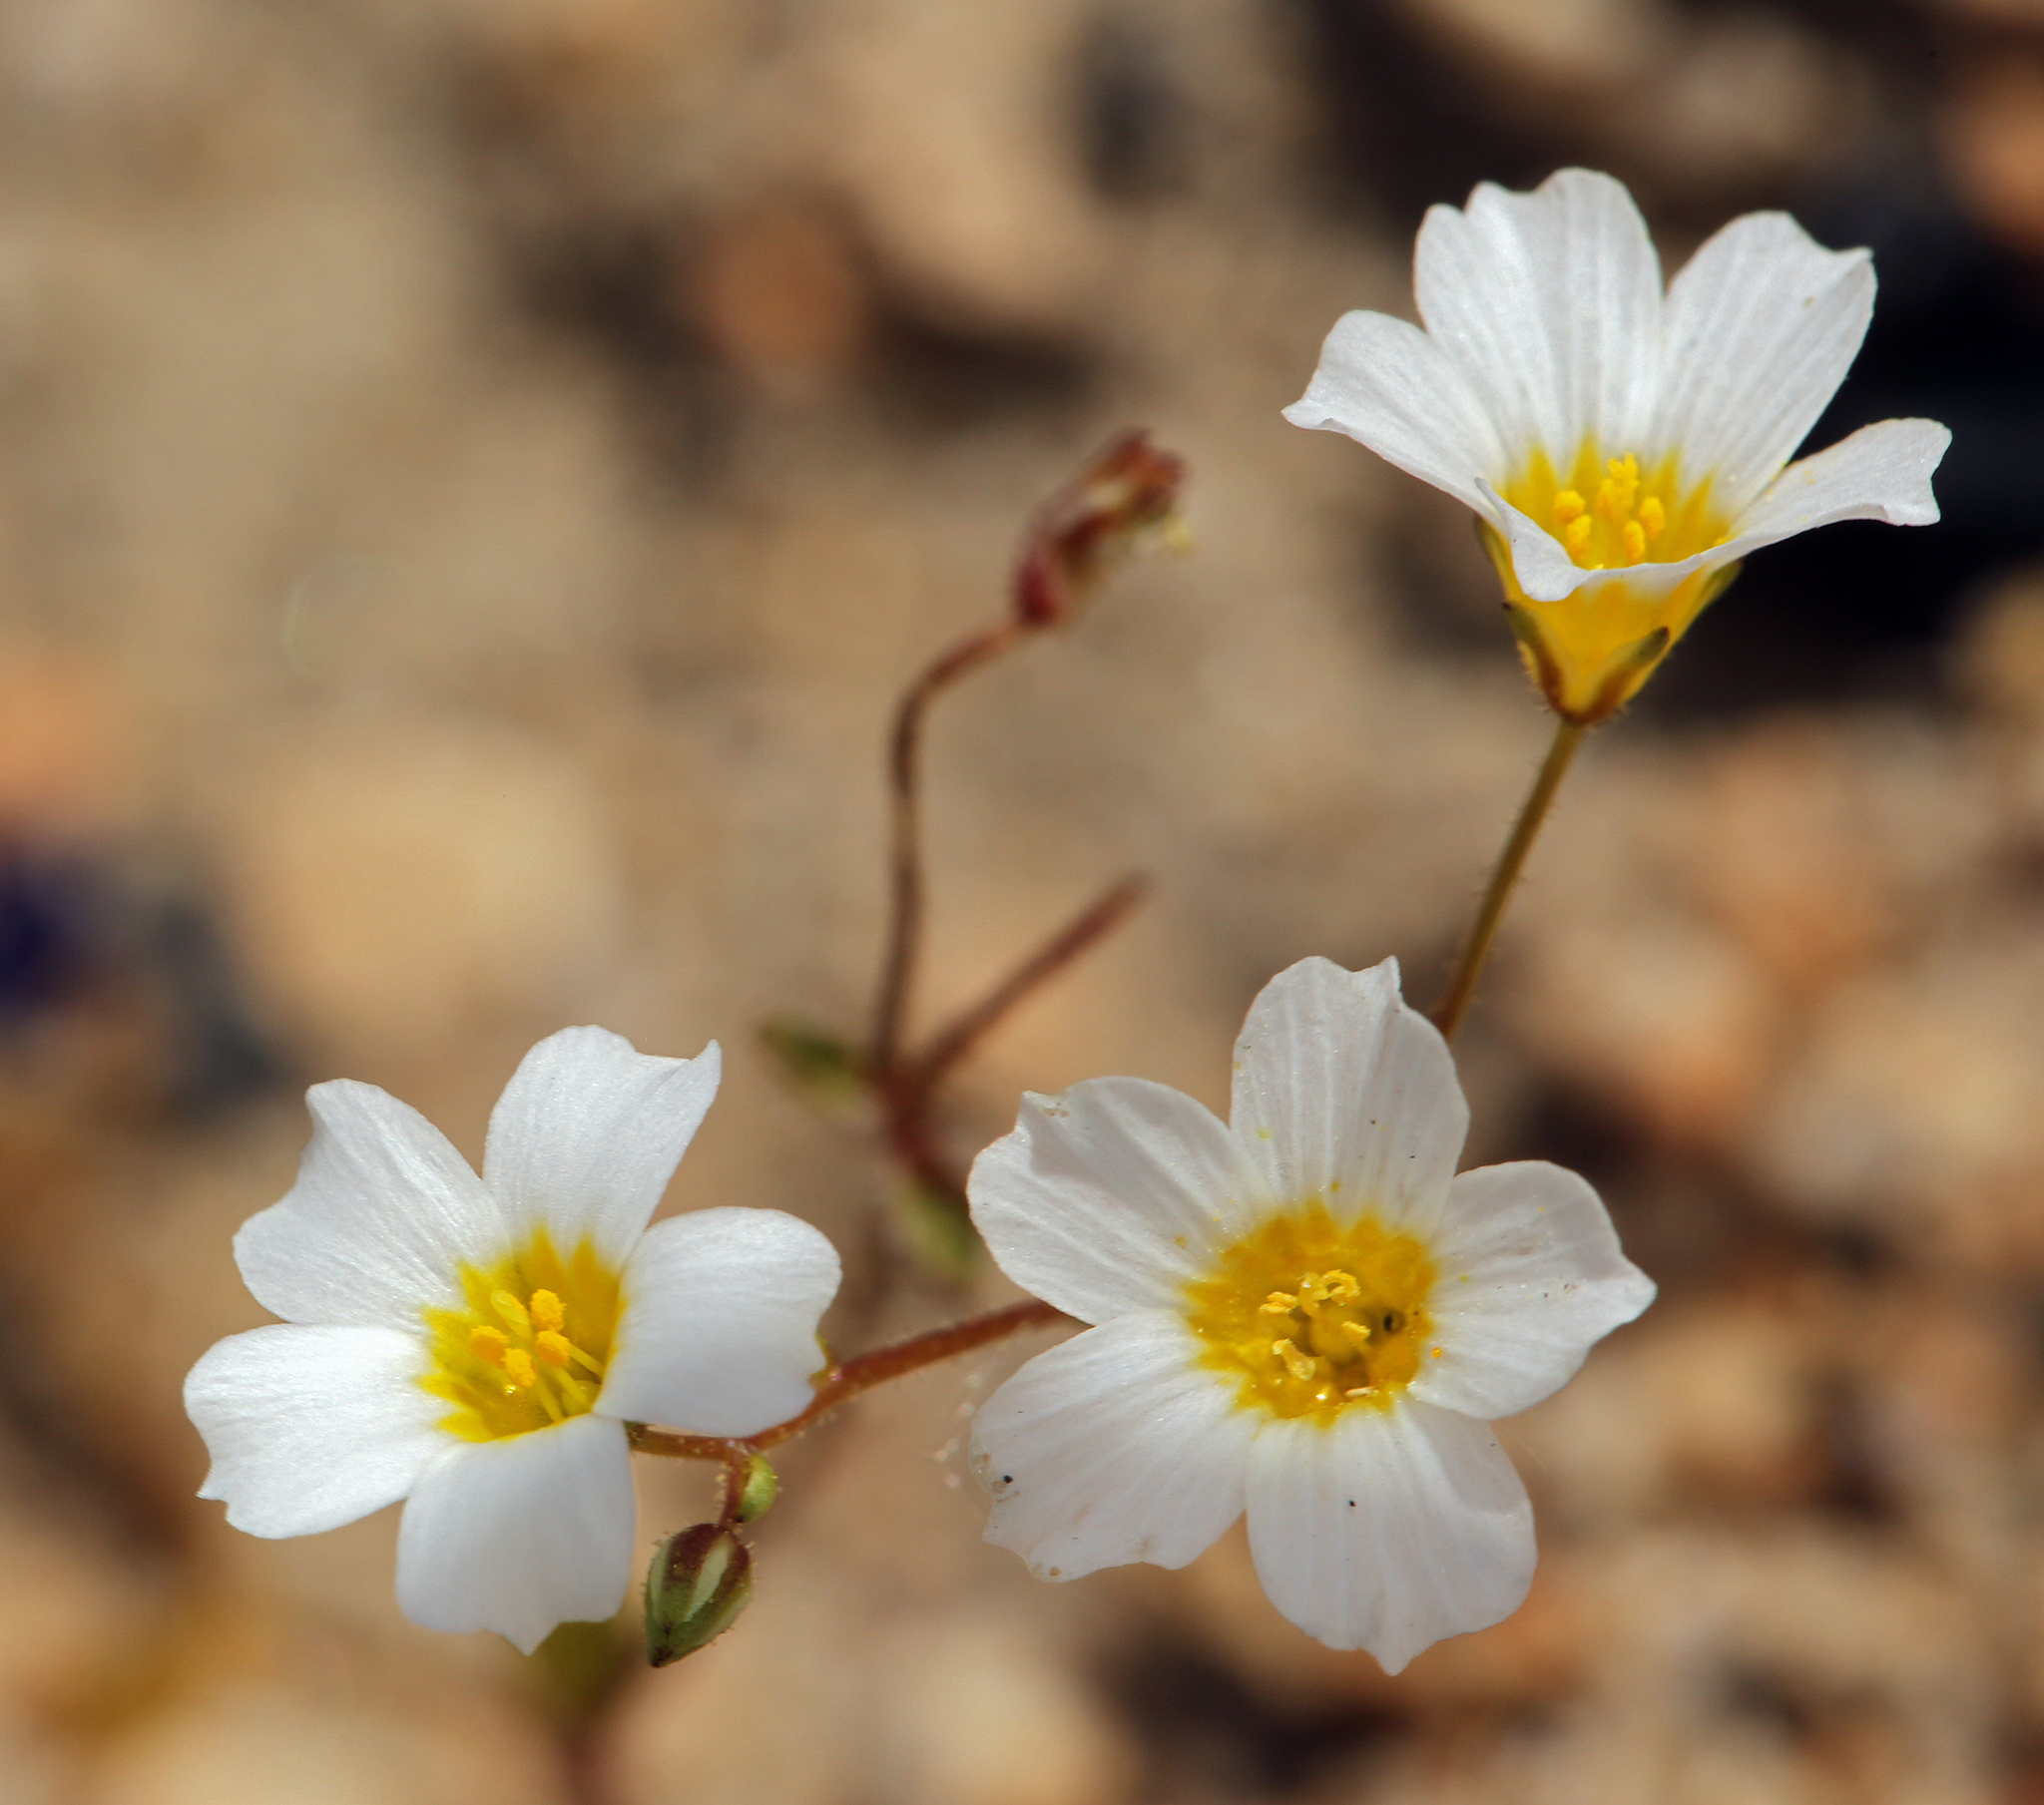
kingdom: Plantae
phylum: Tracheophyta
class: Magnoliopsida
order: Ericales
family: Polemoniaceae
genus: Linanthus
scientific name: Linanthus inyoensis
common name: Inyo gilia
